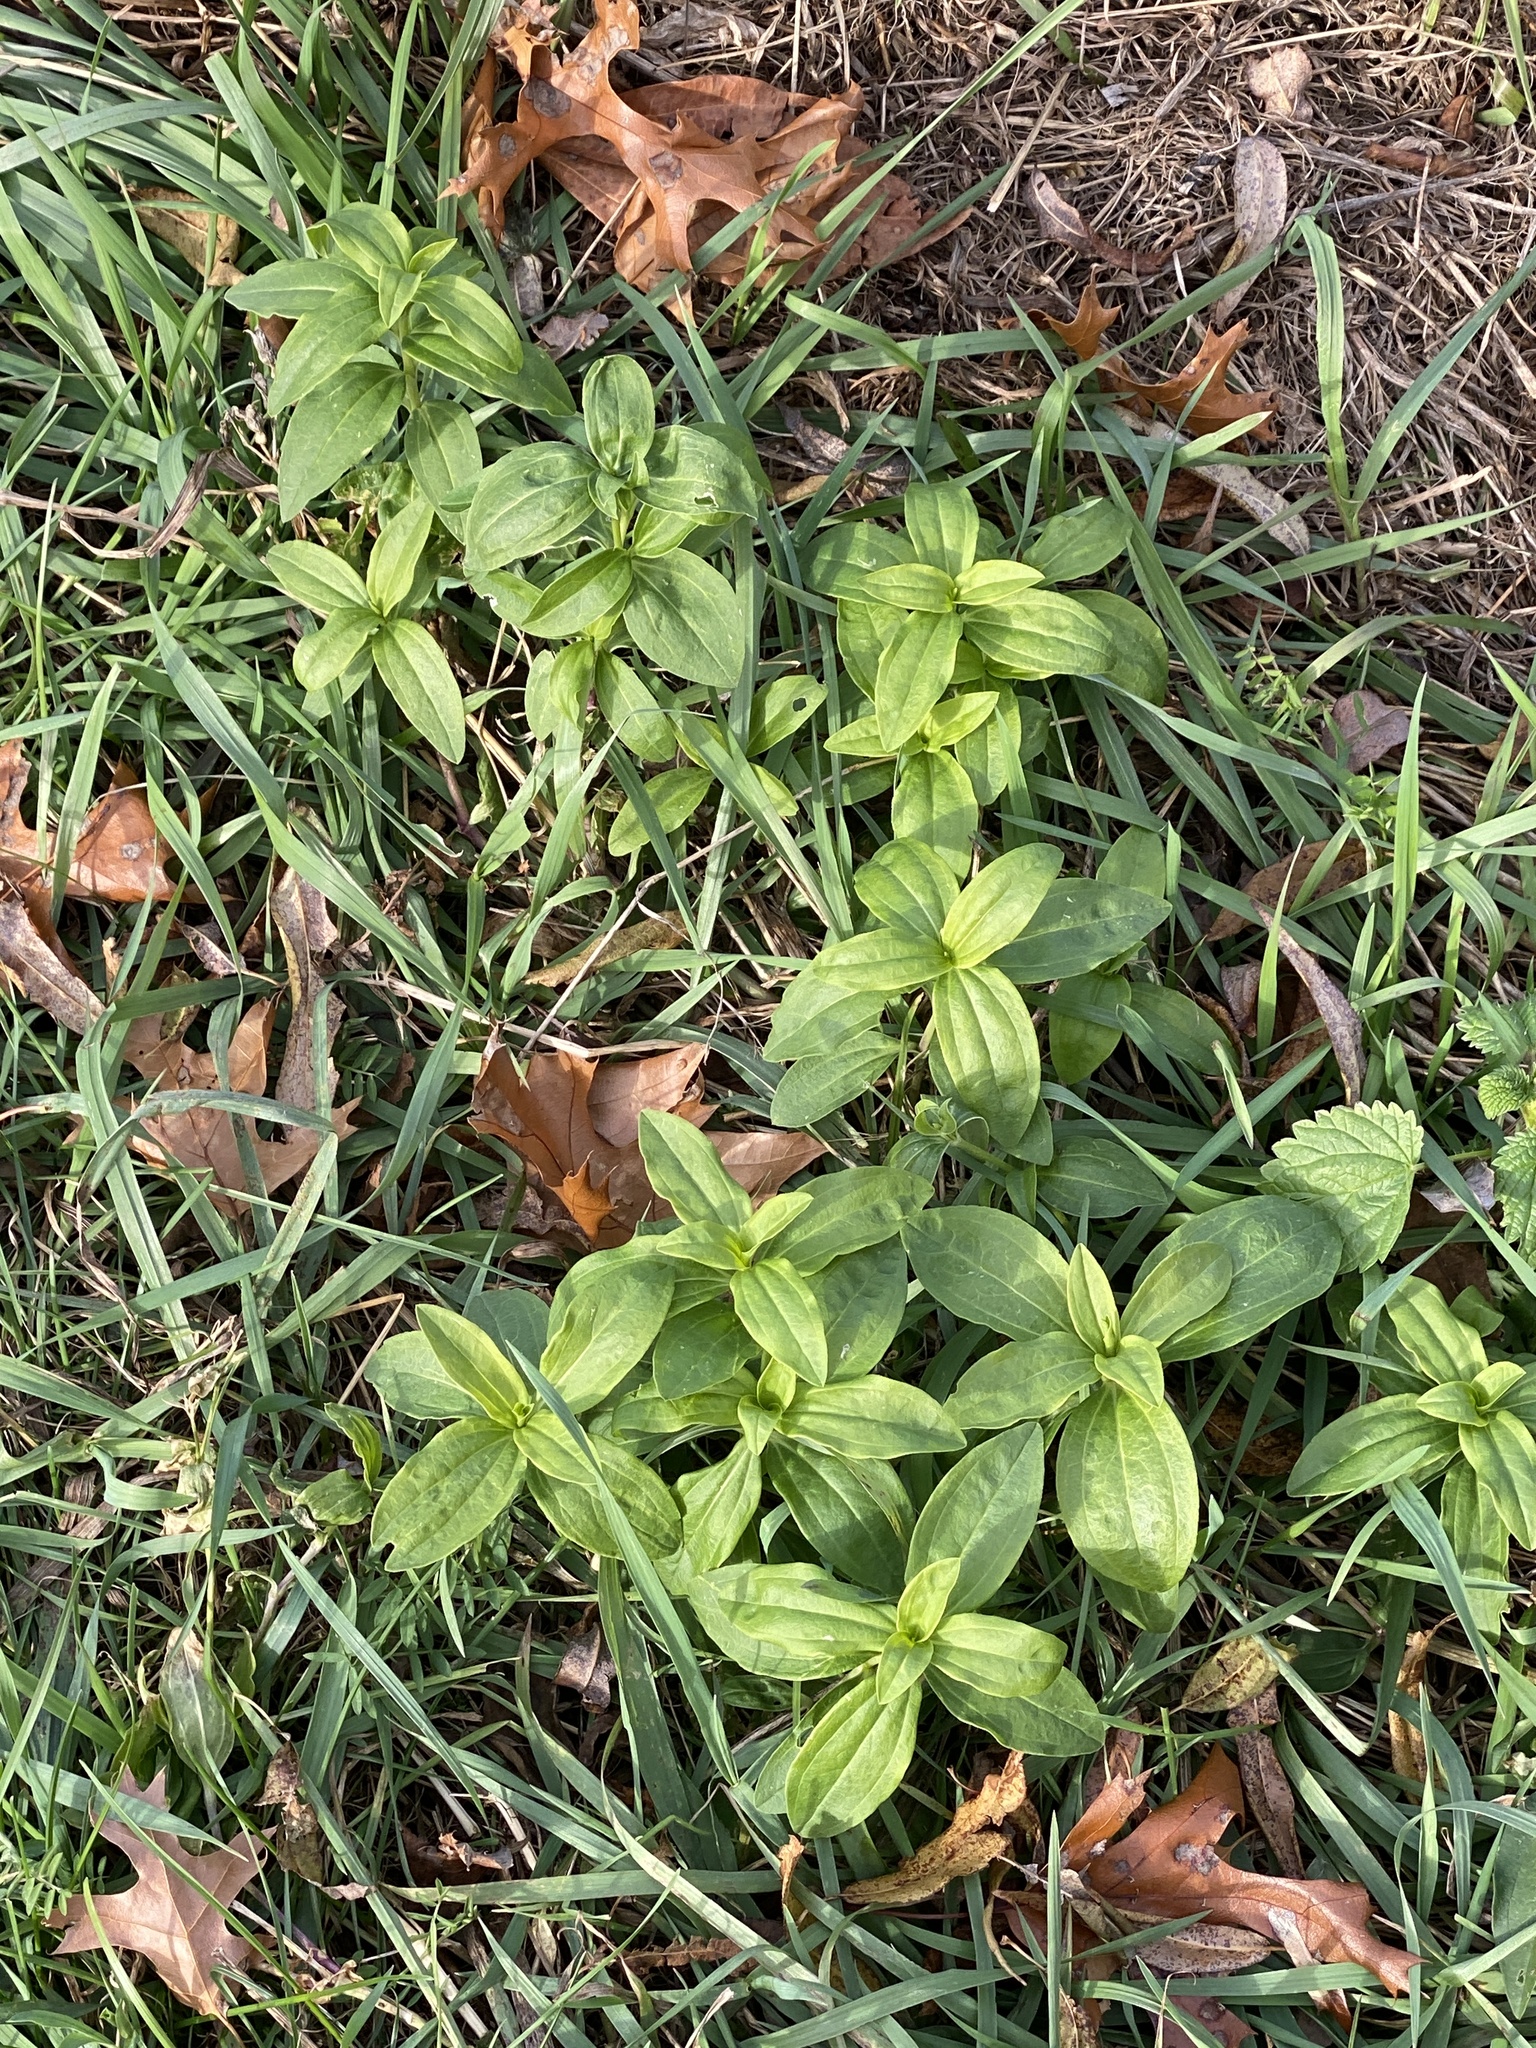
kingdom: Plantae
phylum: Tracheophyta
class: Magnoliopsida
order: Caryophyllales
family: Caryophyllaceae
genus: Saponaria
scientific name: Saponaria officinalis
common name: Soapwort
